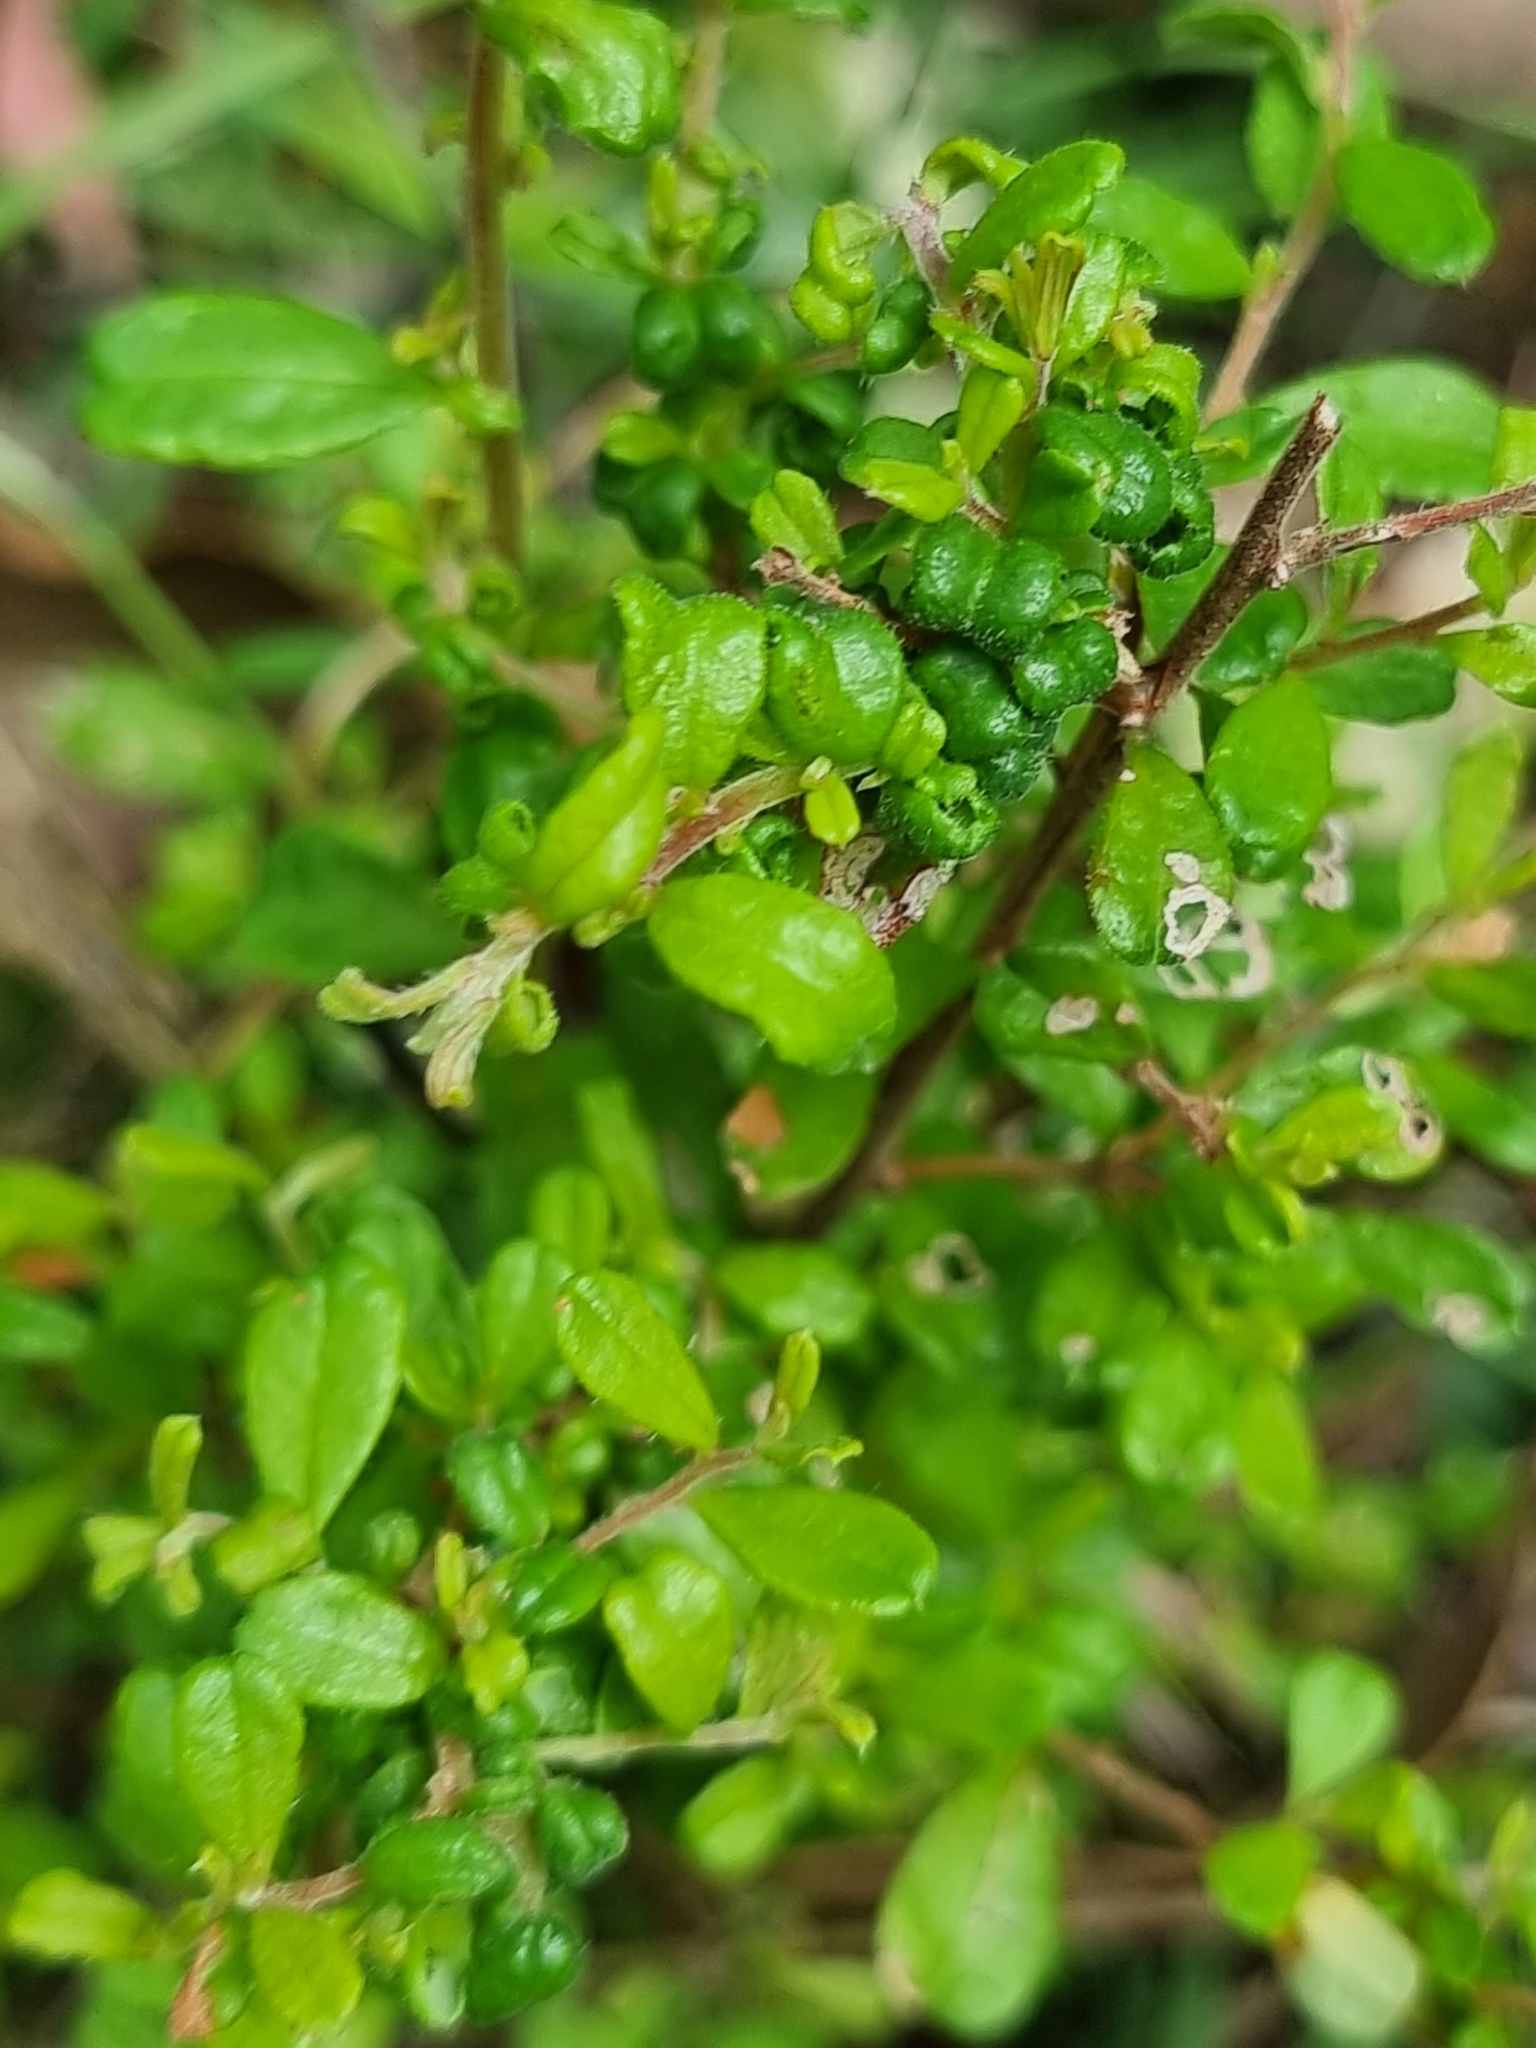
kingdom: Plantae
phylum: Tracheophyta
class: Magnoliopsida
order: Dilleniales
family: Dilleniaceae
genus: Hibbertia
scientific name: Hibbertia aspera
